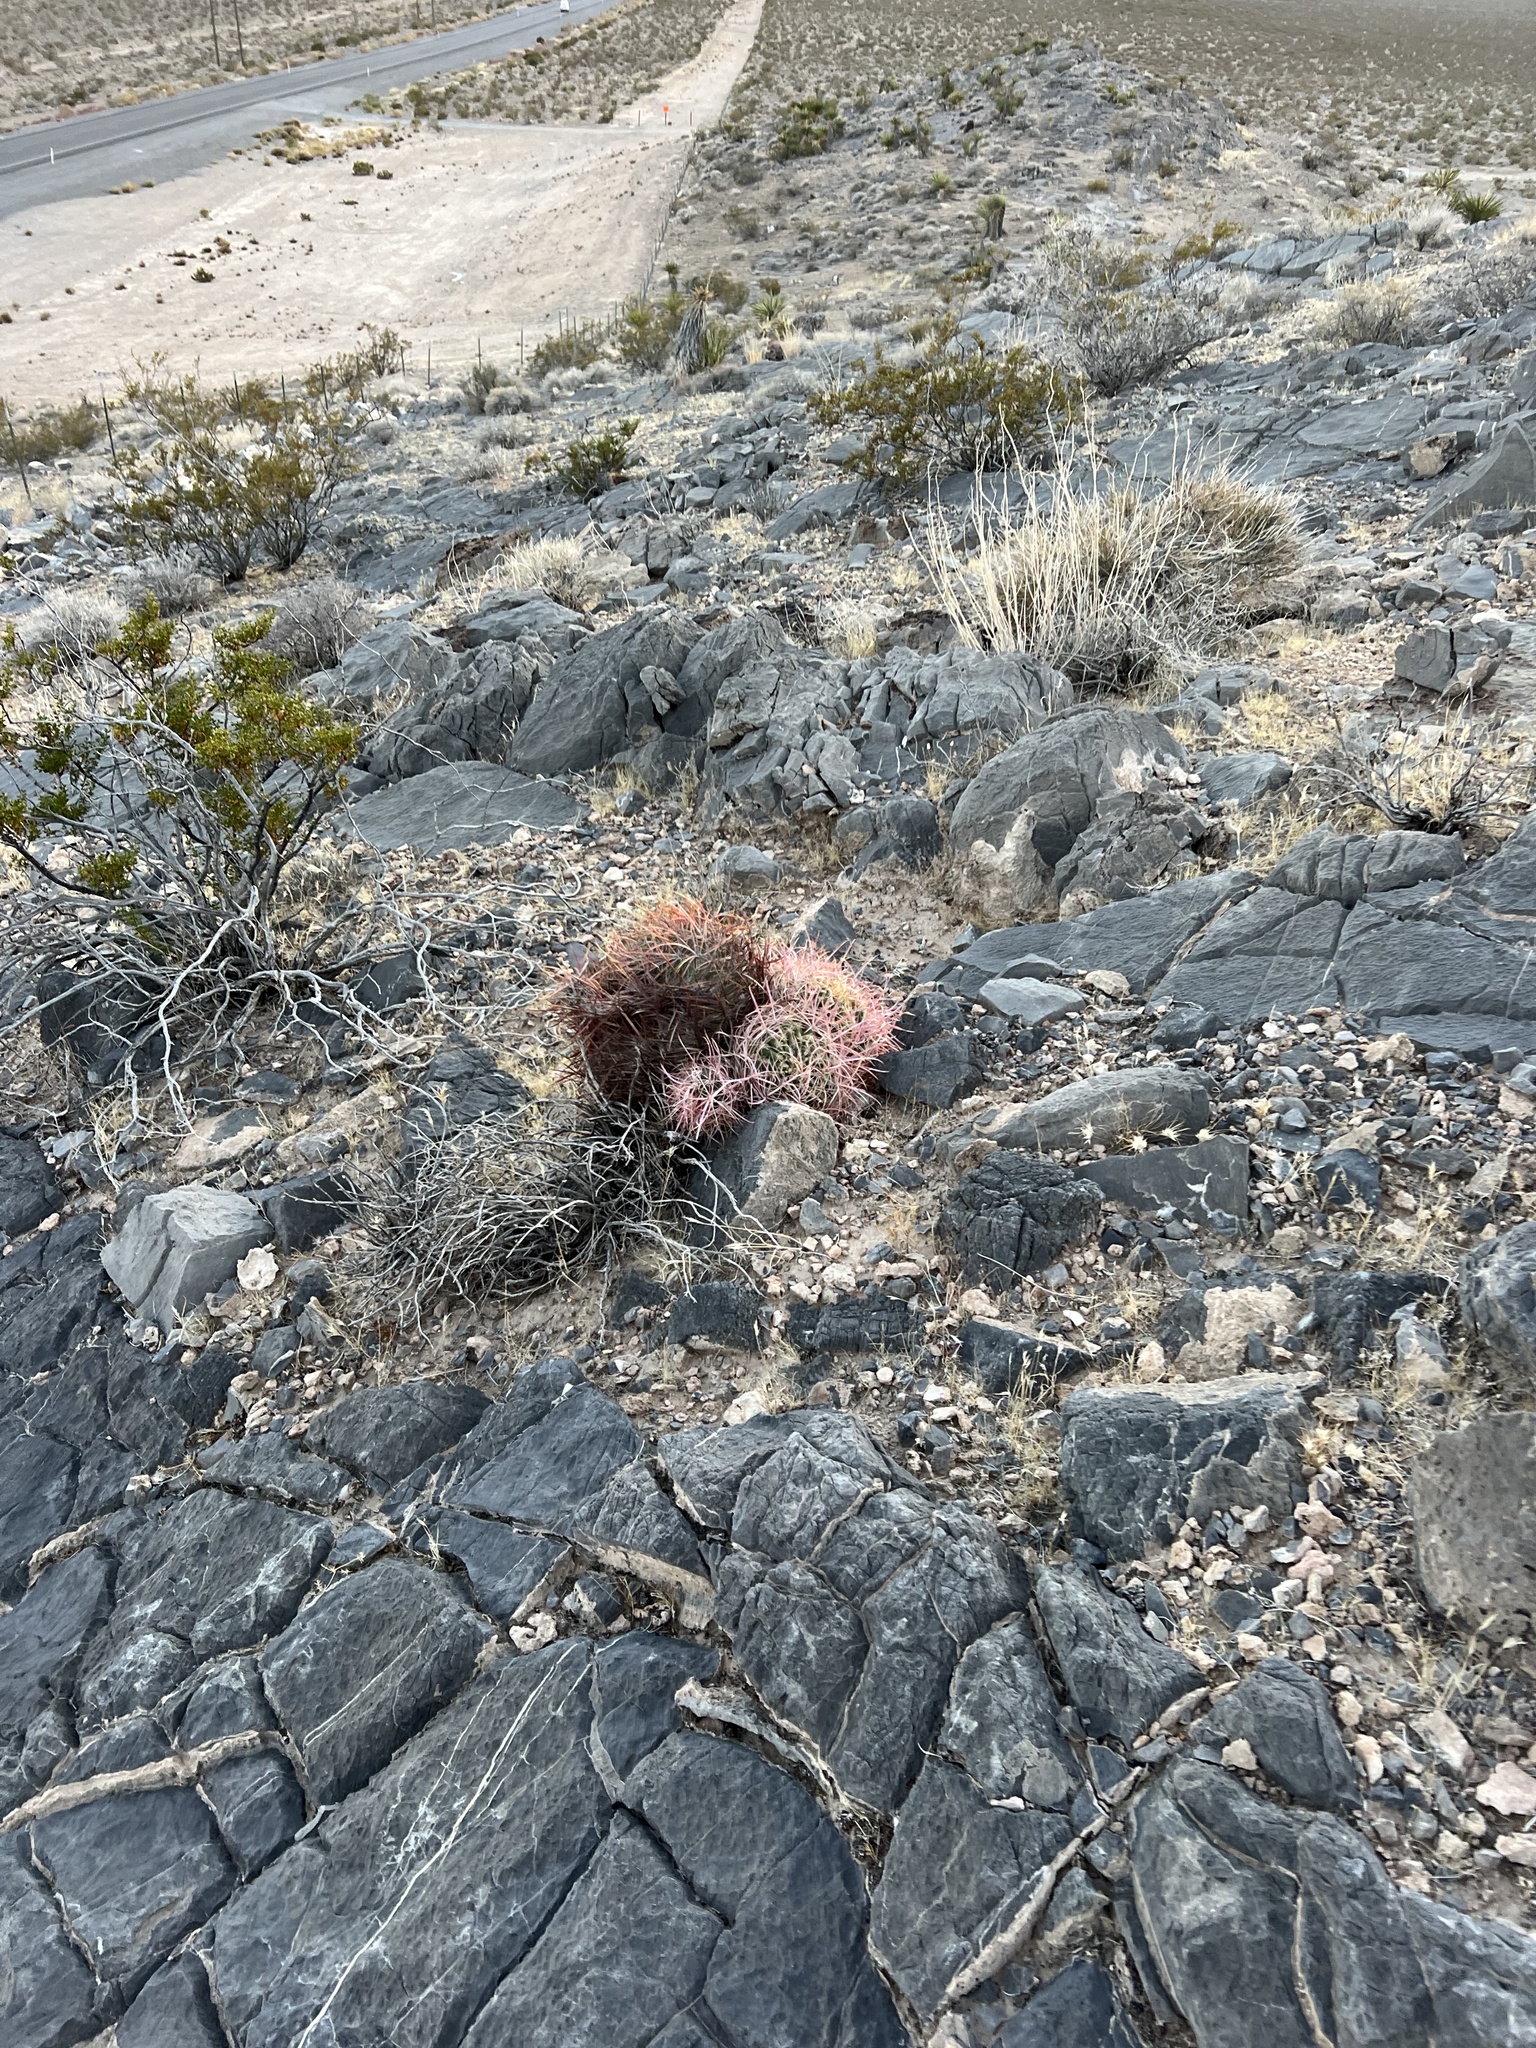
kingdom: Plantae
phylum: Tracheophyta
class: Magnoliopsida
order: Caryophyllales
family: Cactaceae
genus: Ferocactus
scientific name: Ferocactus cylindraceus
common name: California barrel cactus
